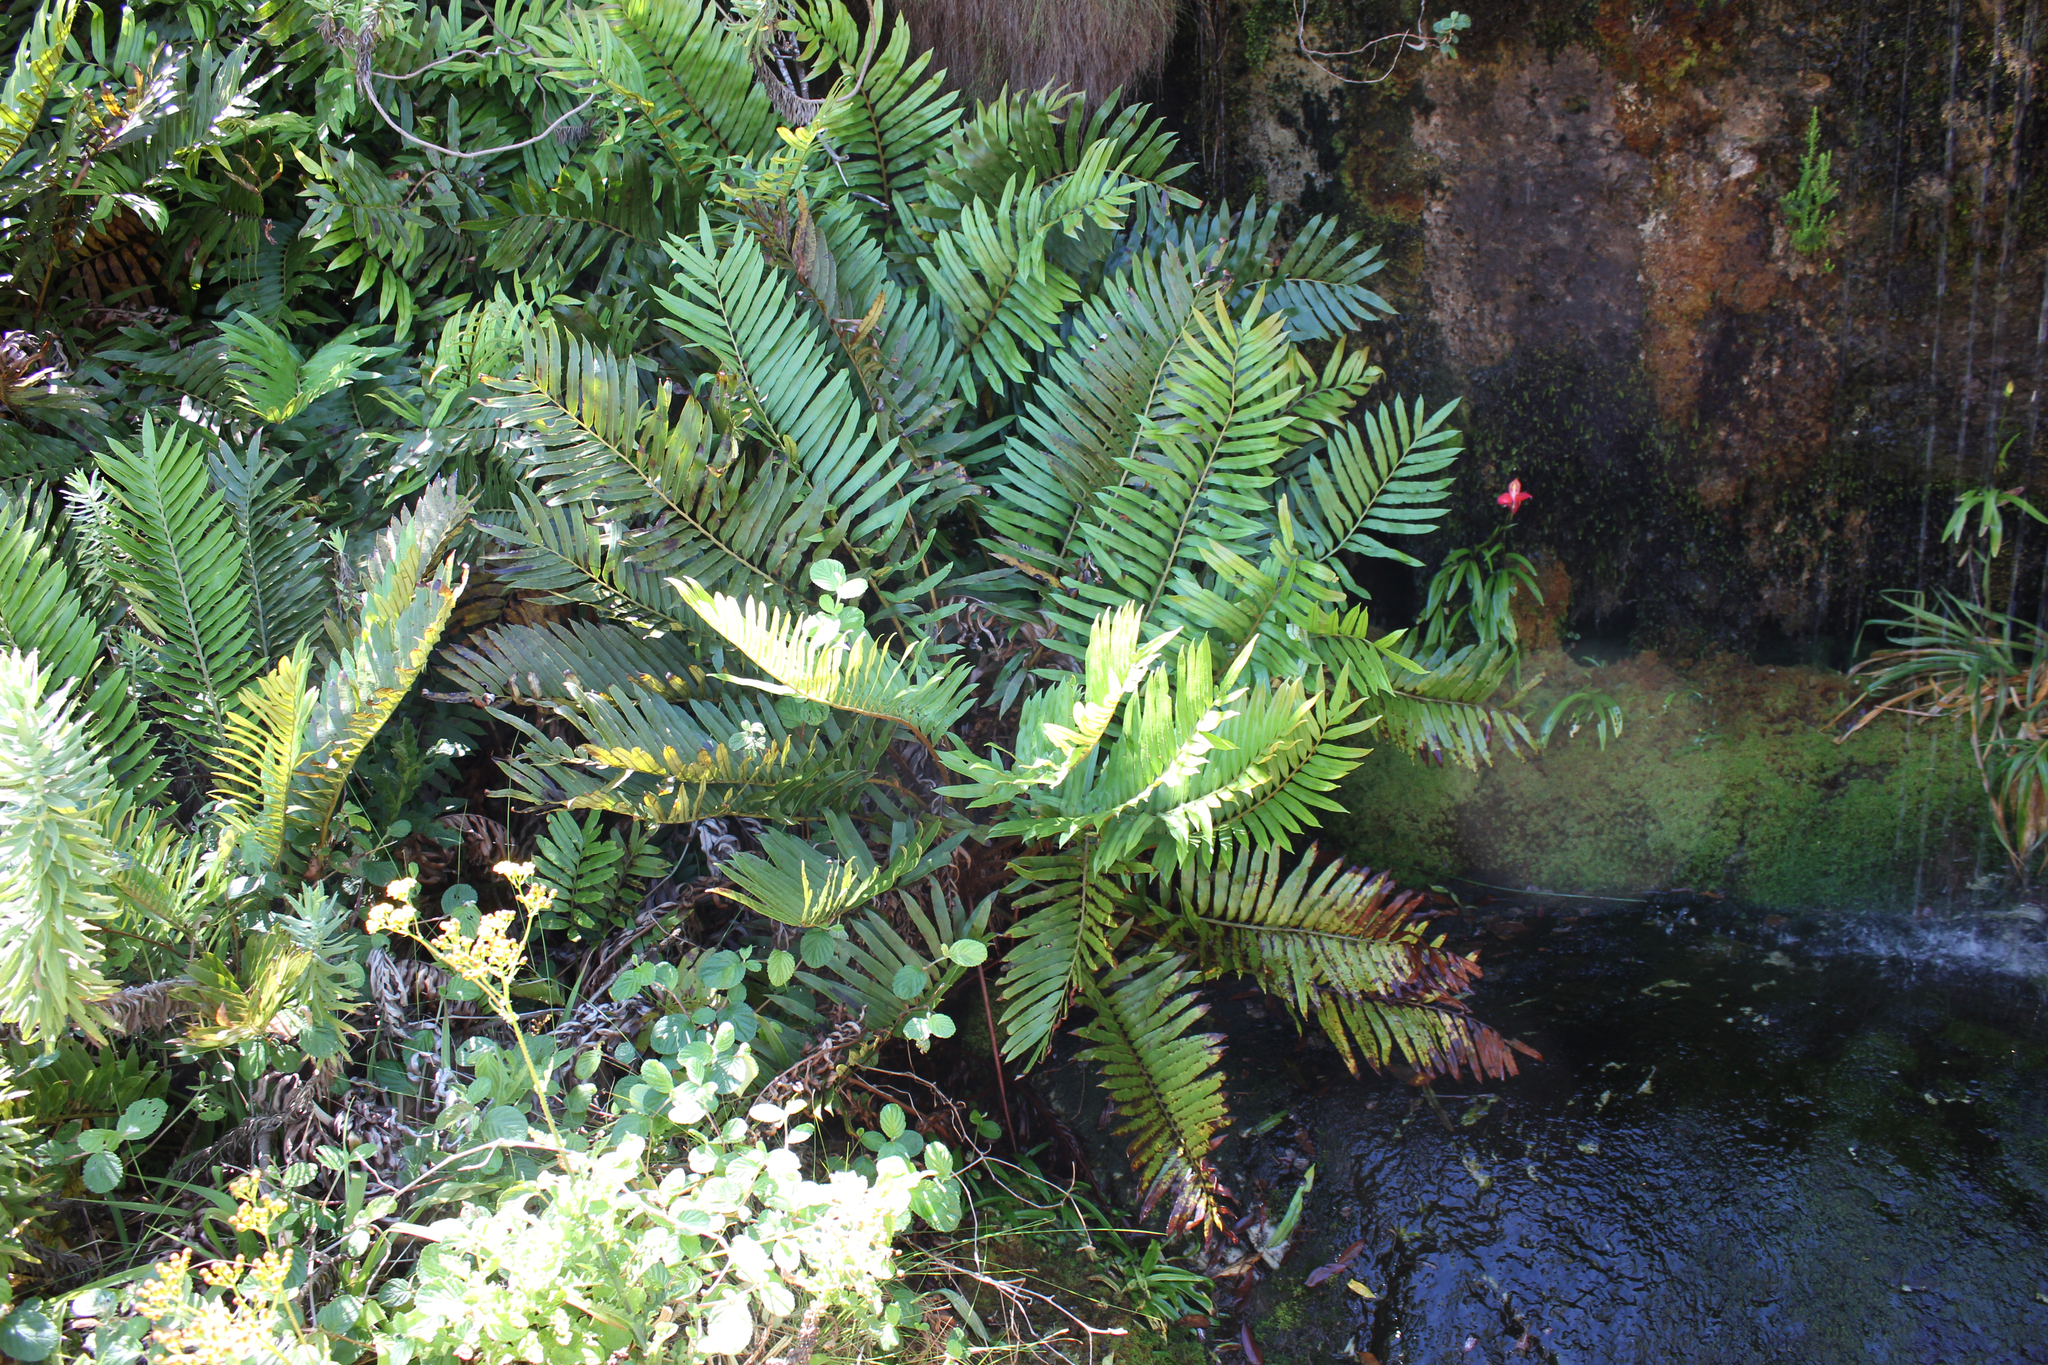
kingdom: Plantae
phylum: Tracheophyta
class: Polypodiopsida
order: Polypodiales
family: Blechnaceae
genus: Lomariocycas
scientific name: Lomariocycas tabularis
